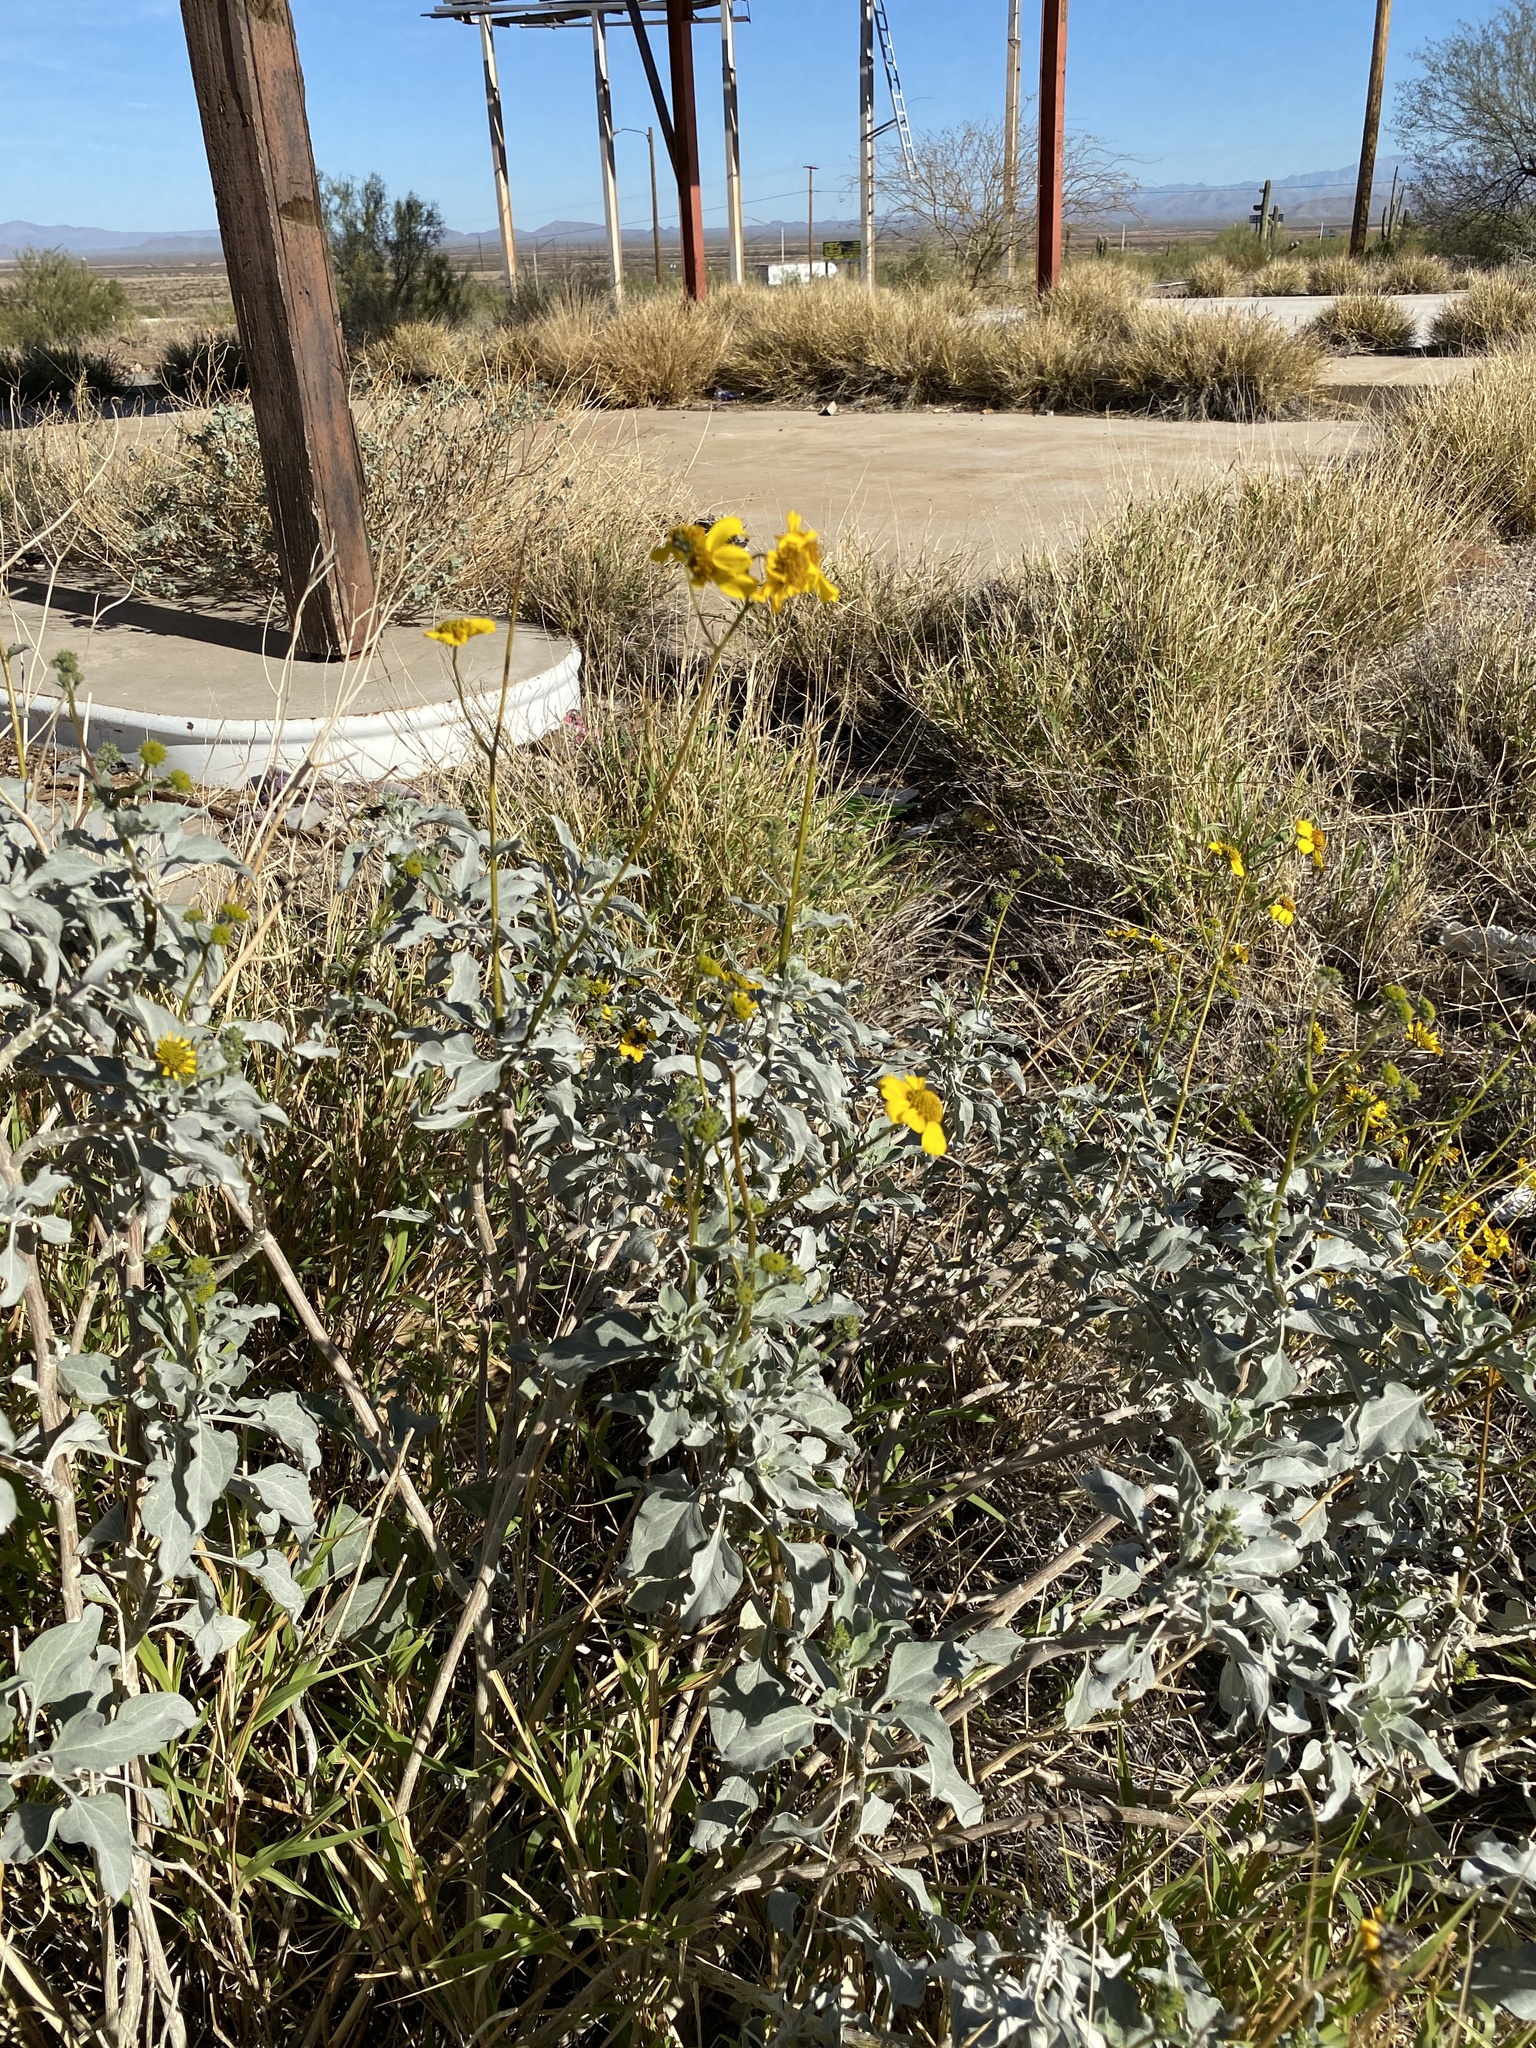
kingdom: Plantae
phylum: Tracheophyta
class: Magnoliopsida
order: Asterales
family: Asteraceae
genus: Encelia
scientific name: Encelia farinosa
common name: Brittlebush
